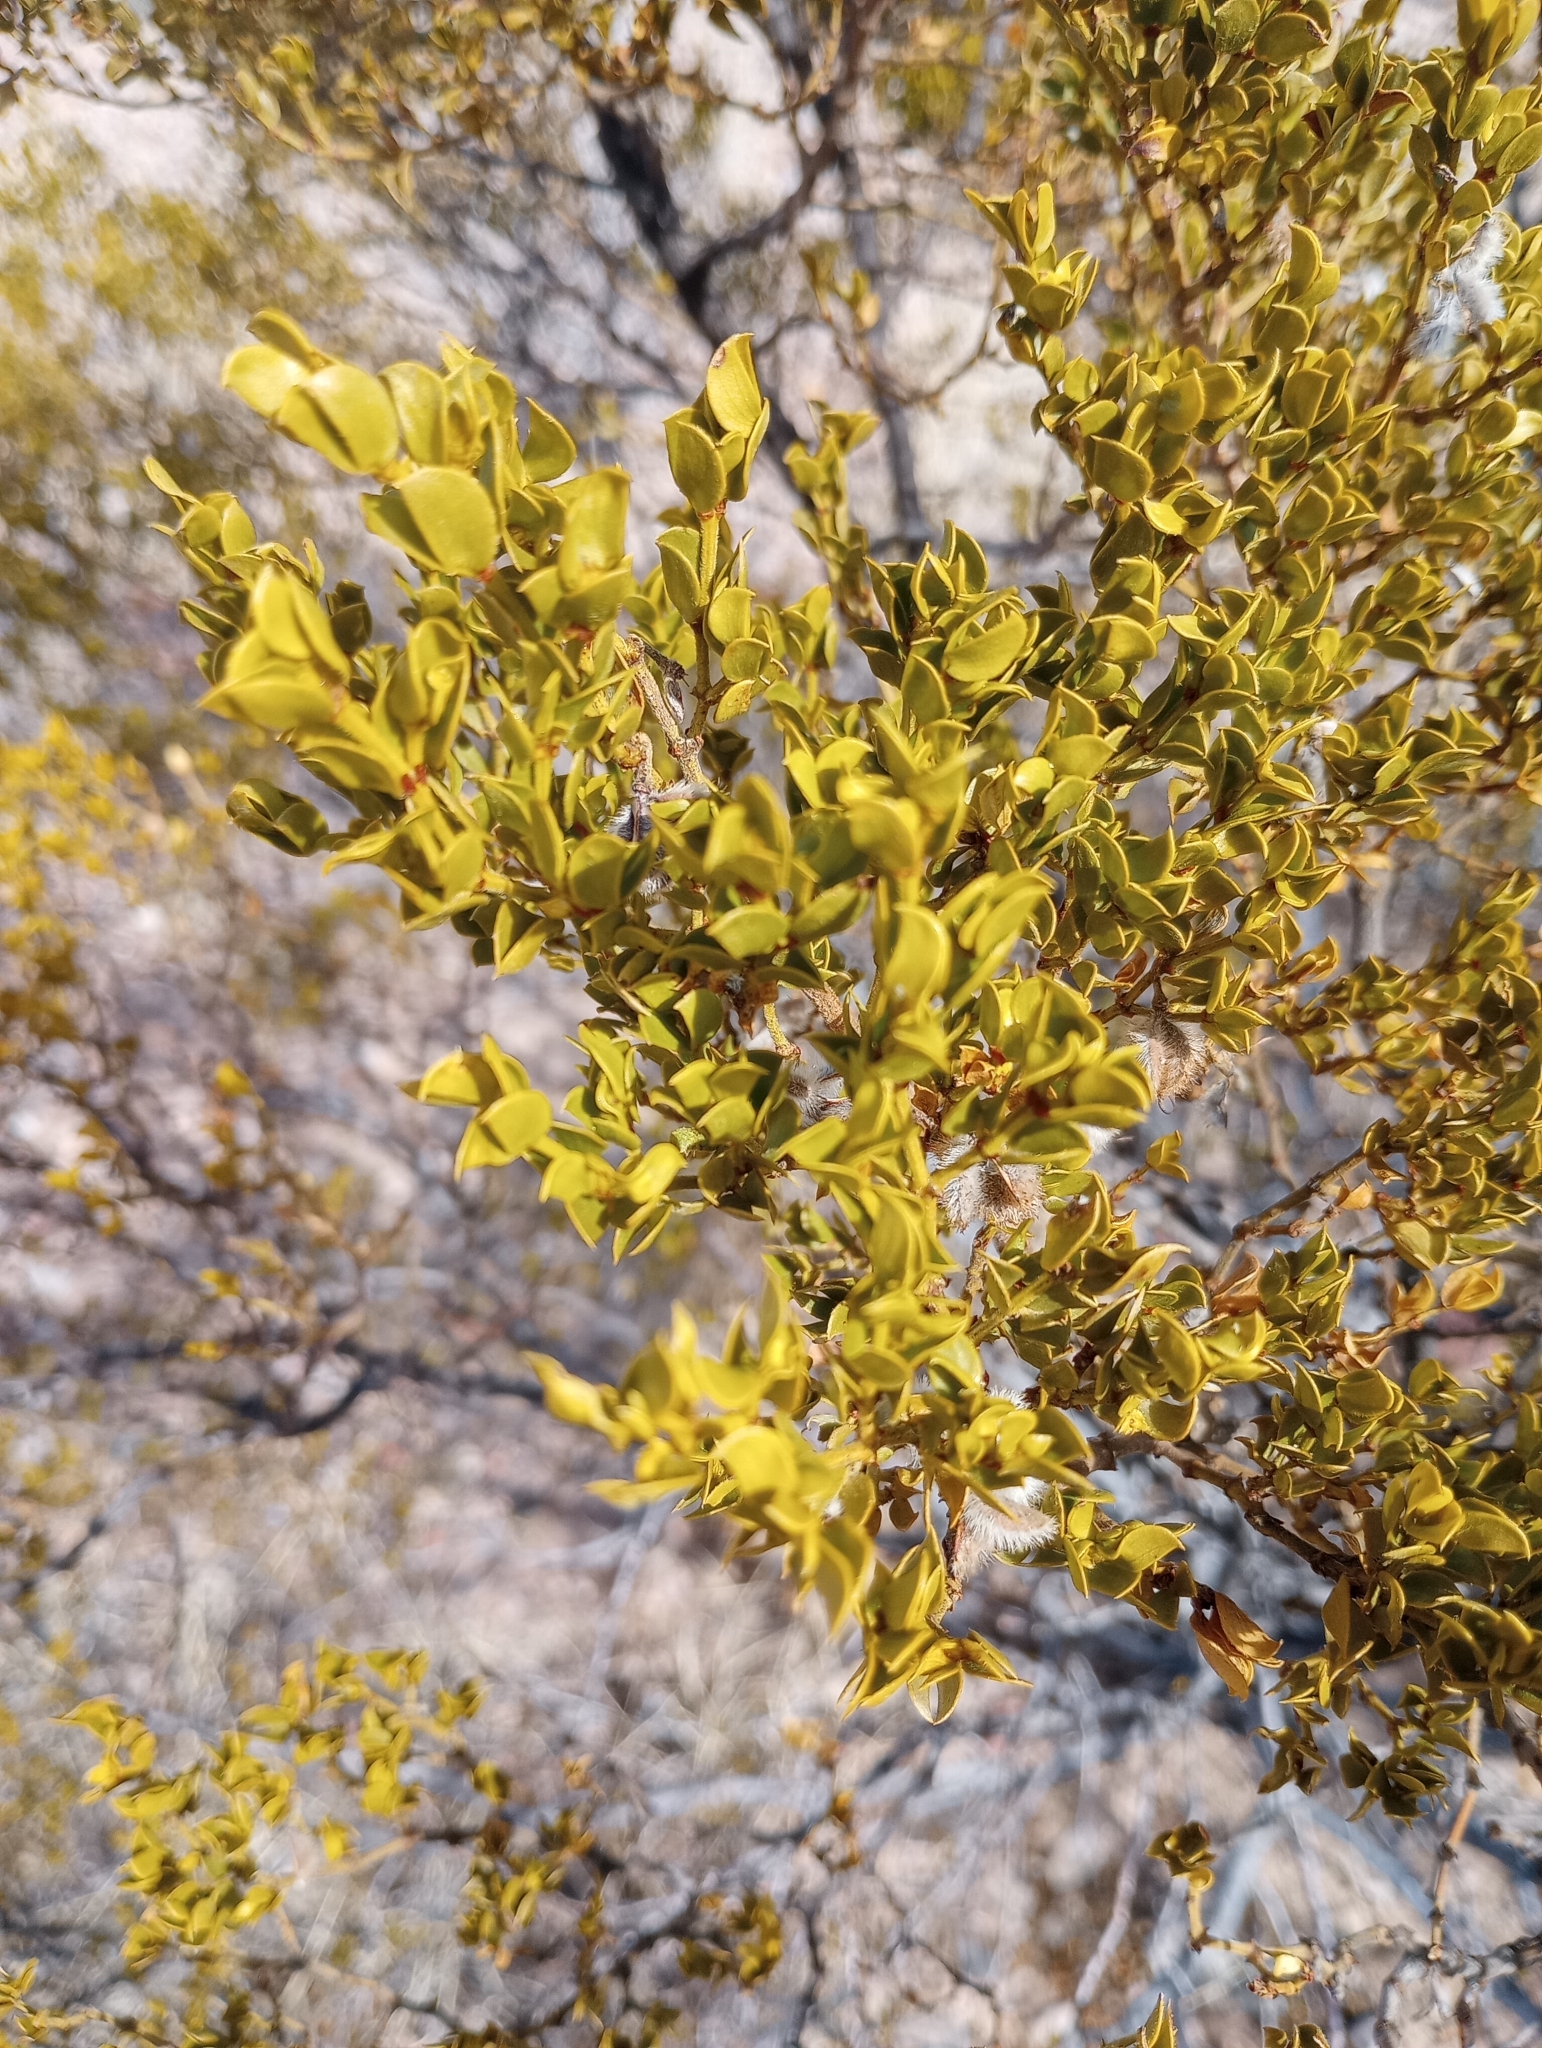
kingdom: Plantae
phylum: Tracheophyta
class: Magnoliopsida
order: Zygophyllales
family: Zygophyllaceae
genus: Larrea
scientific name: Larrea tridentata
